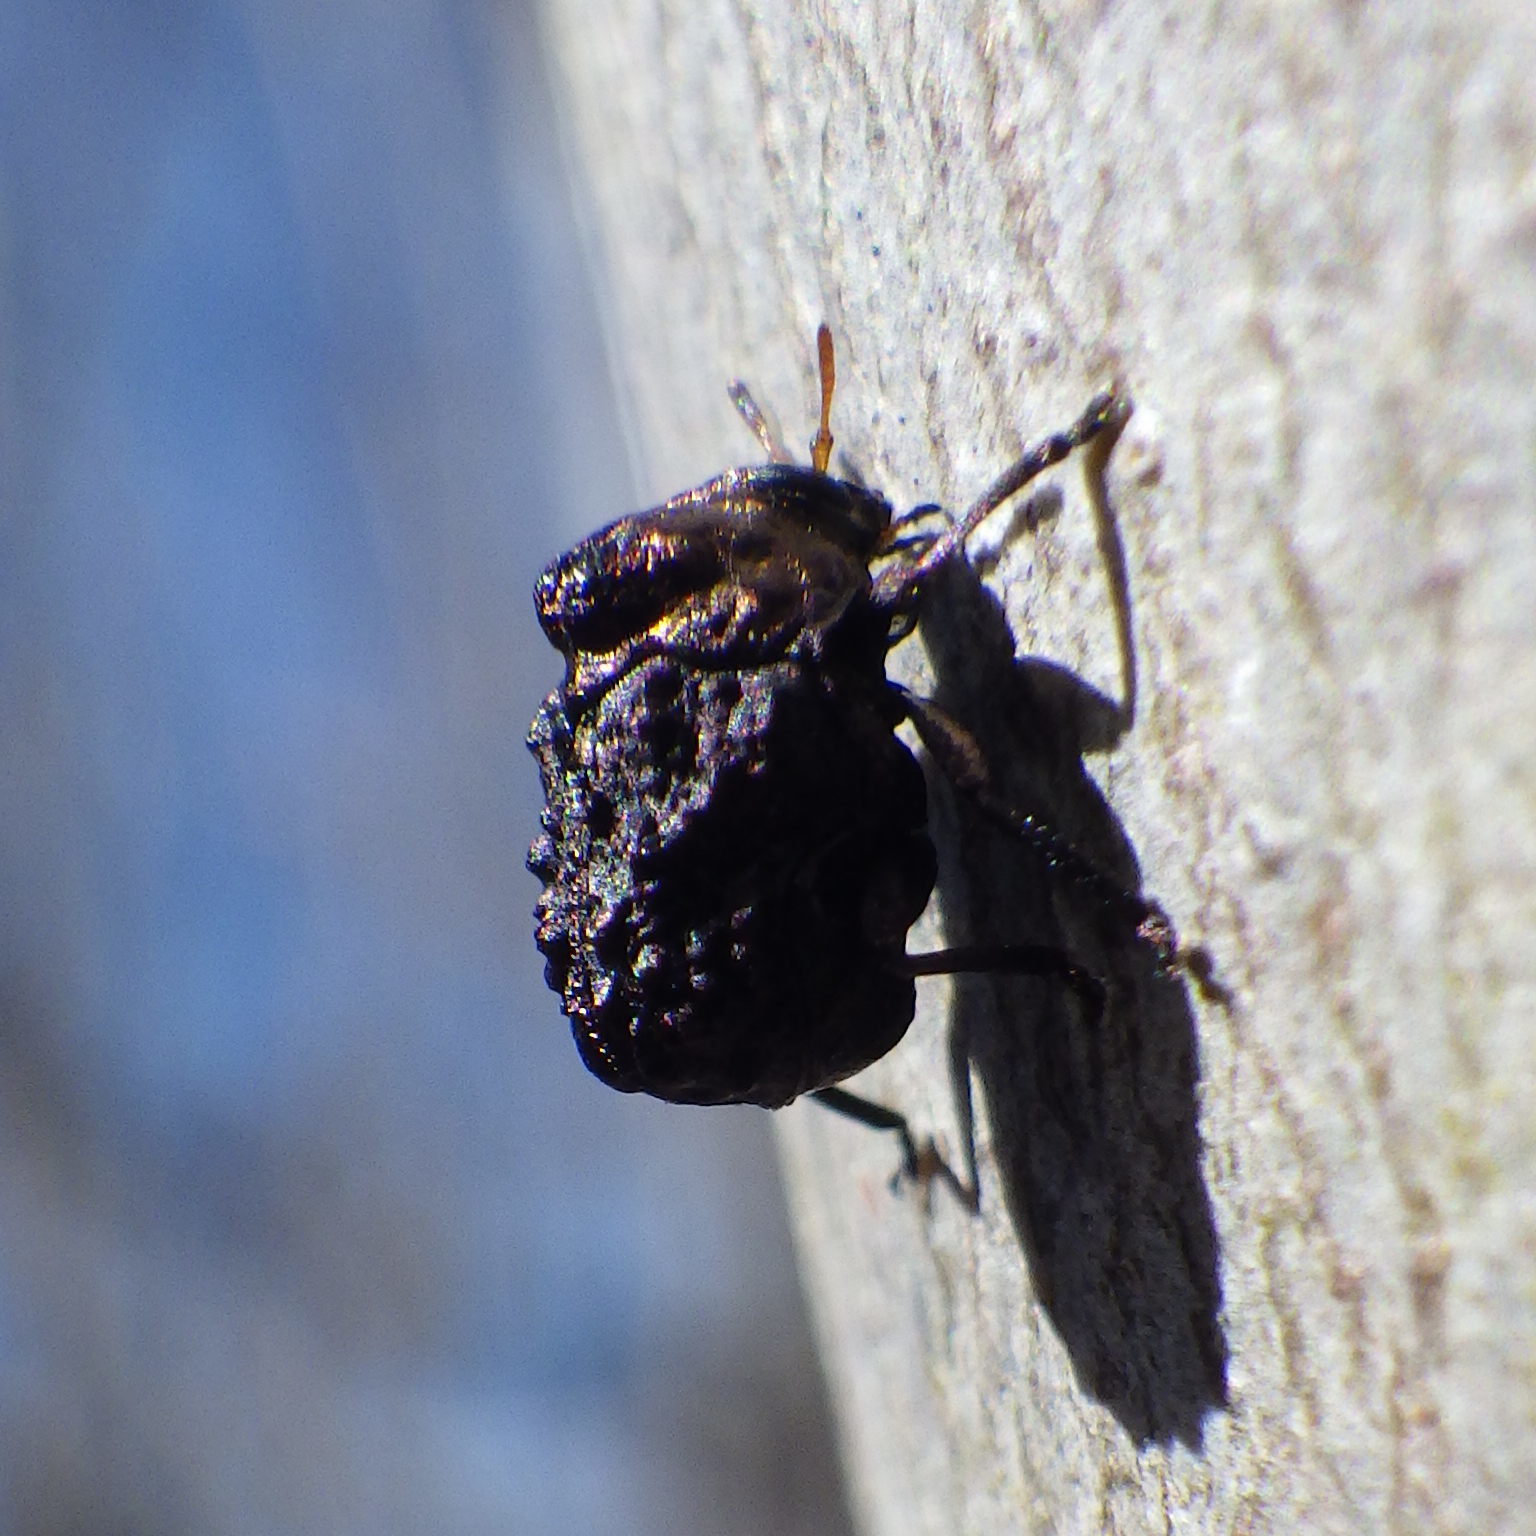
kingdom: Animalia
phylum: Arthropoda
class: Insecta
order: Coleoptera
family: Chrysomelidae
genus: Neochlamisus
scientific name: Neochlamisus bebbianae
